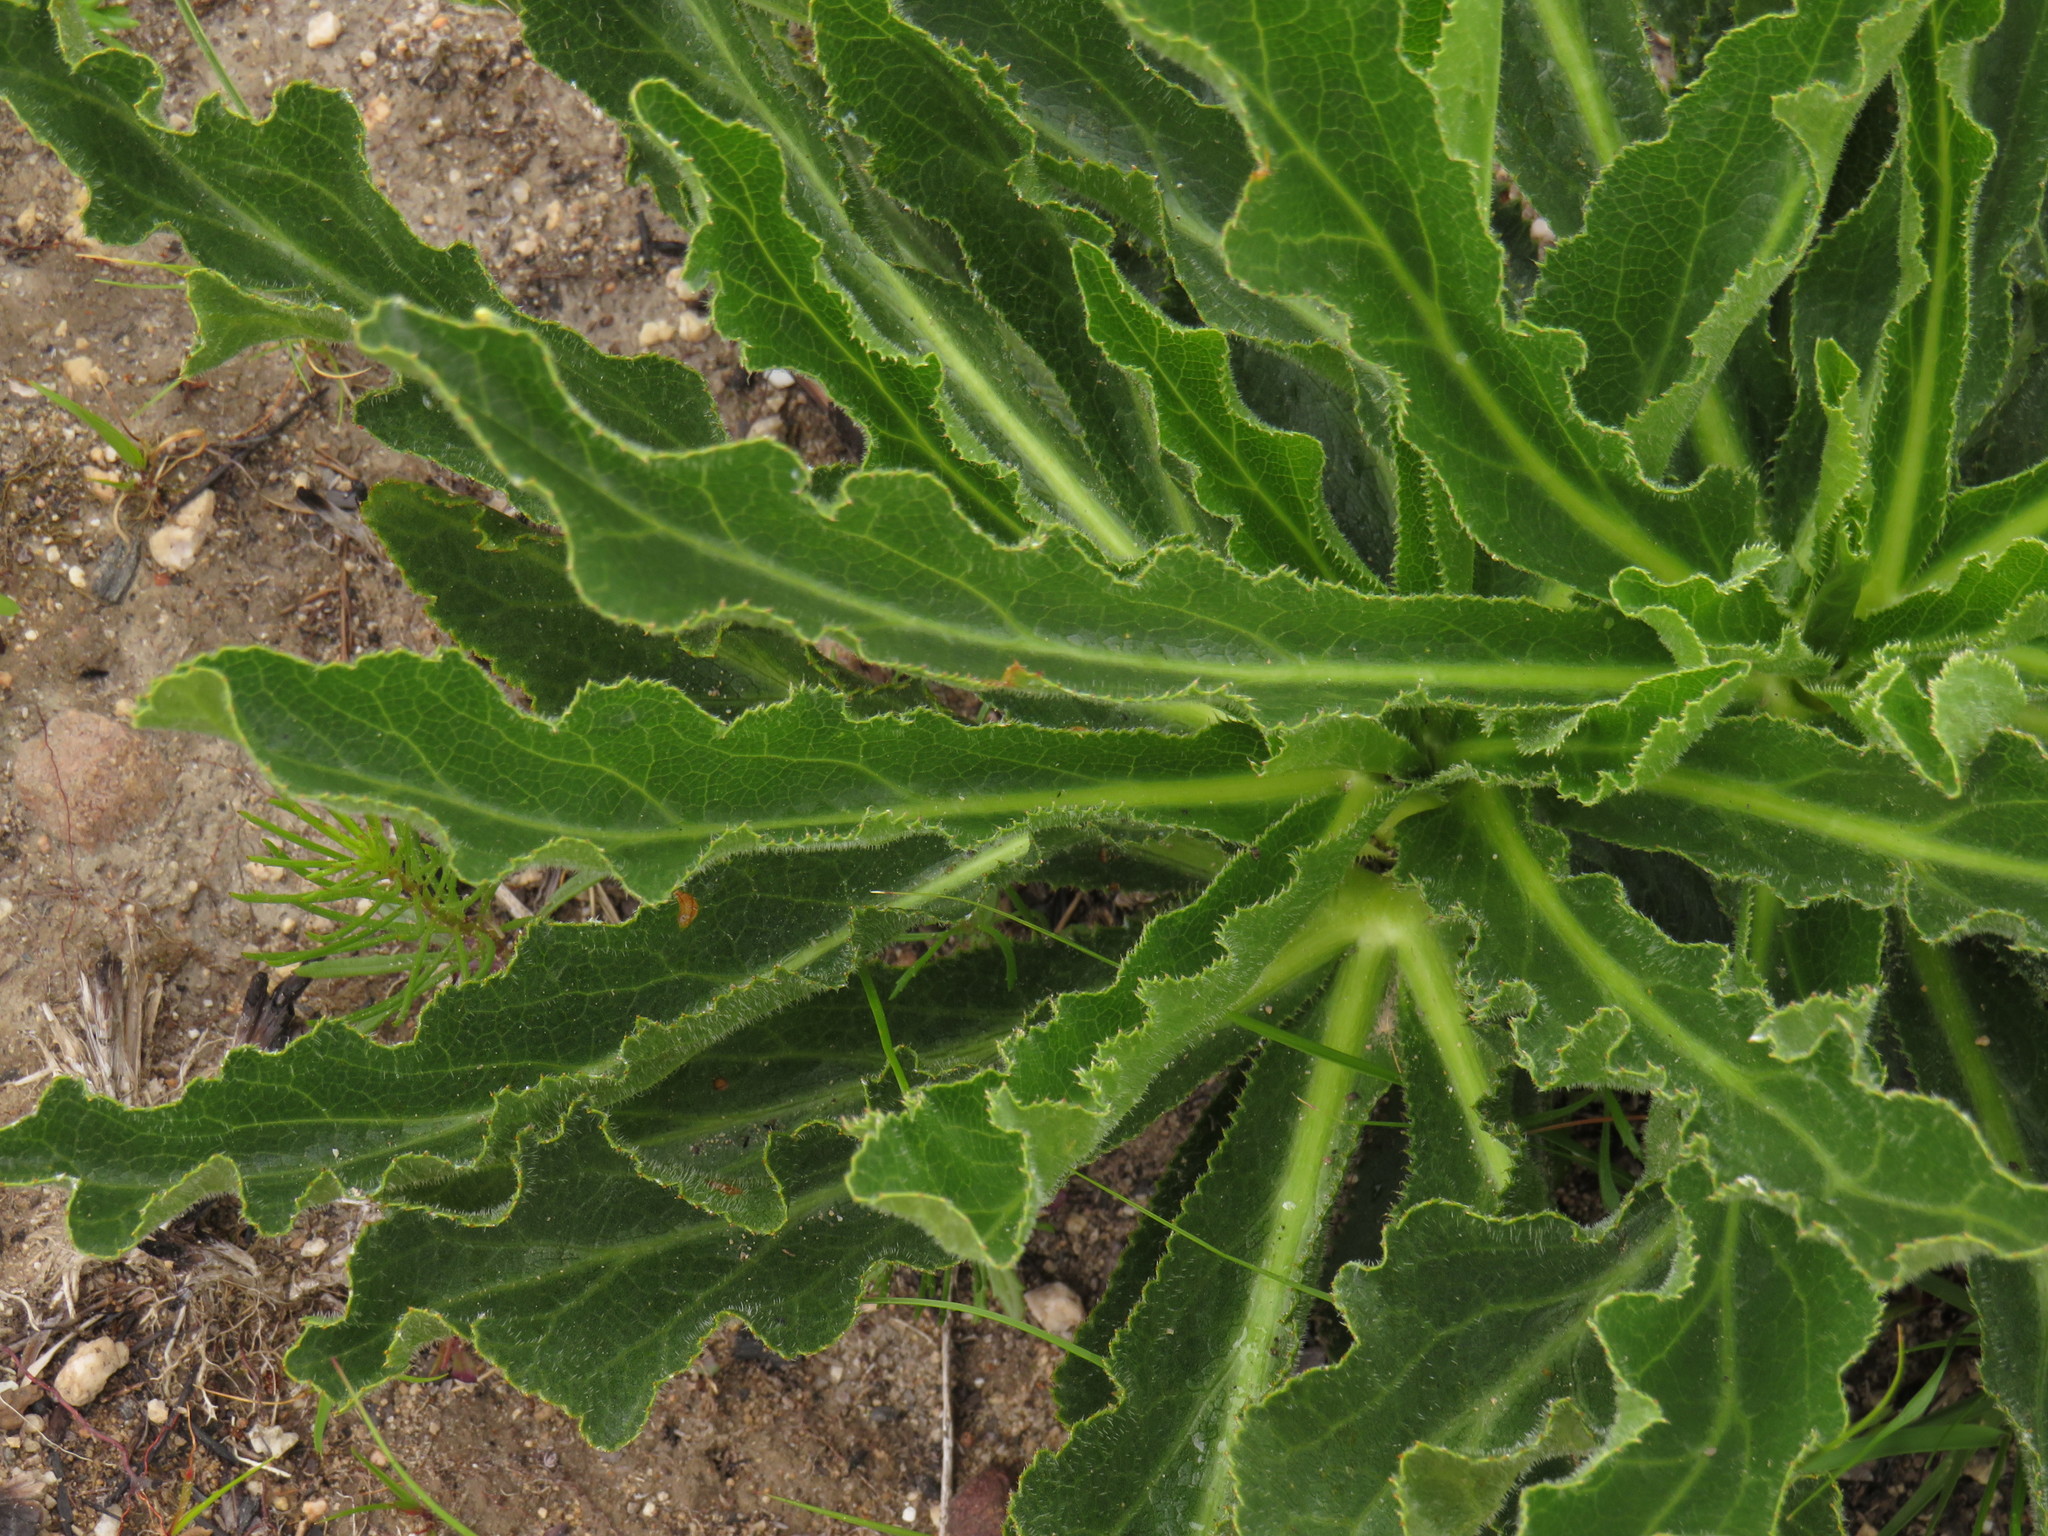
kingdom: Plantae
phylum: Tracheophyta
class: Magnoliopsida
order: Apiales
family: Apiaceae
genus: Lichtensteinia
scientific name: Lichtensteinia trifida
